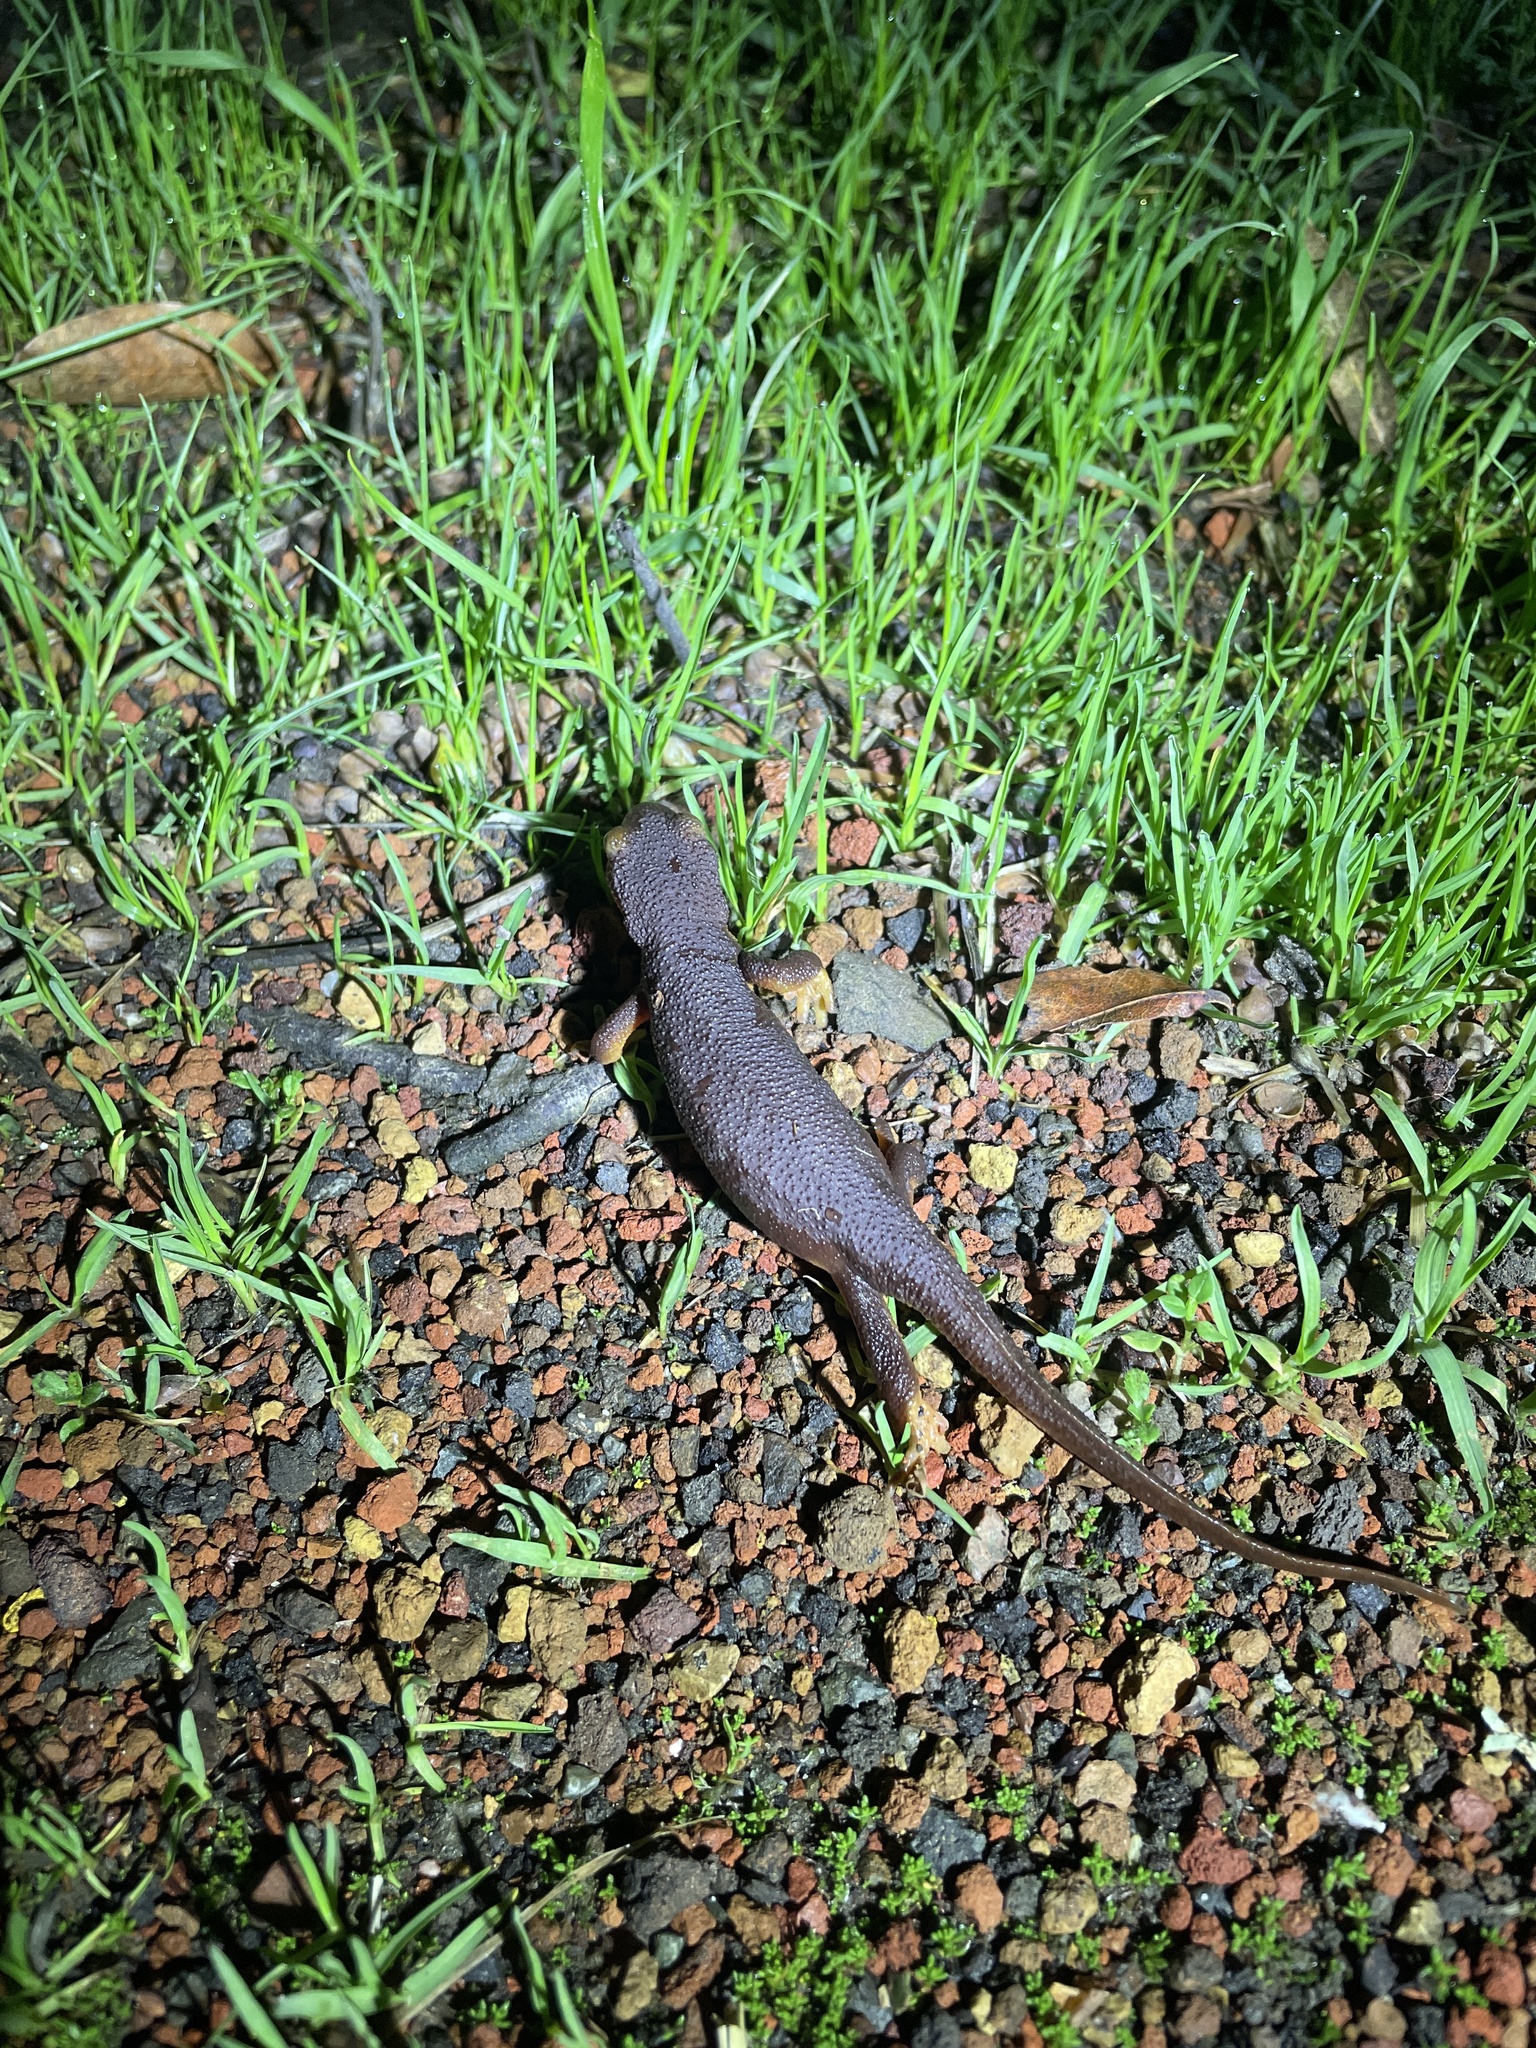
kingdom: Animalia
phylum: Chordata
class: Amphibia
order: Caudata
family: Salamandridae
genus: Taricha
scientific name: Taricha torosa
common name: California newt
